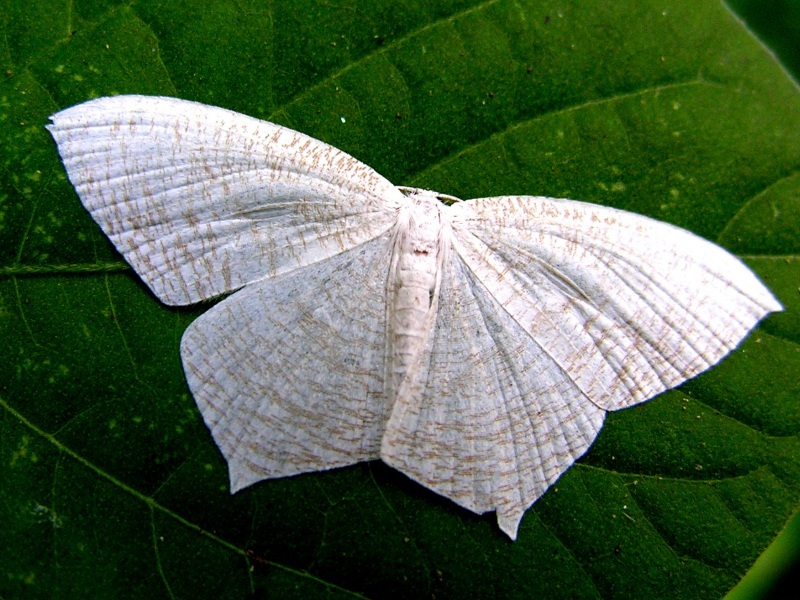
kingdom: Animalia
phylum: Arthropoda
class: Insecta
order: Lepidoptera
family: Uraniidae
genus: Acropteris
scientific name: Acropteris illiturata
